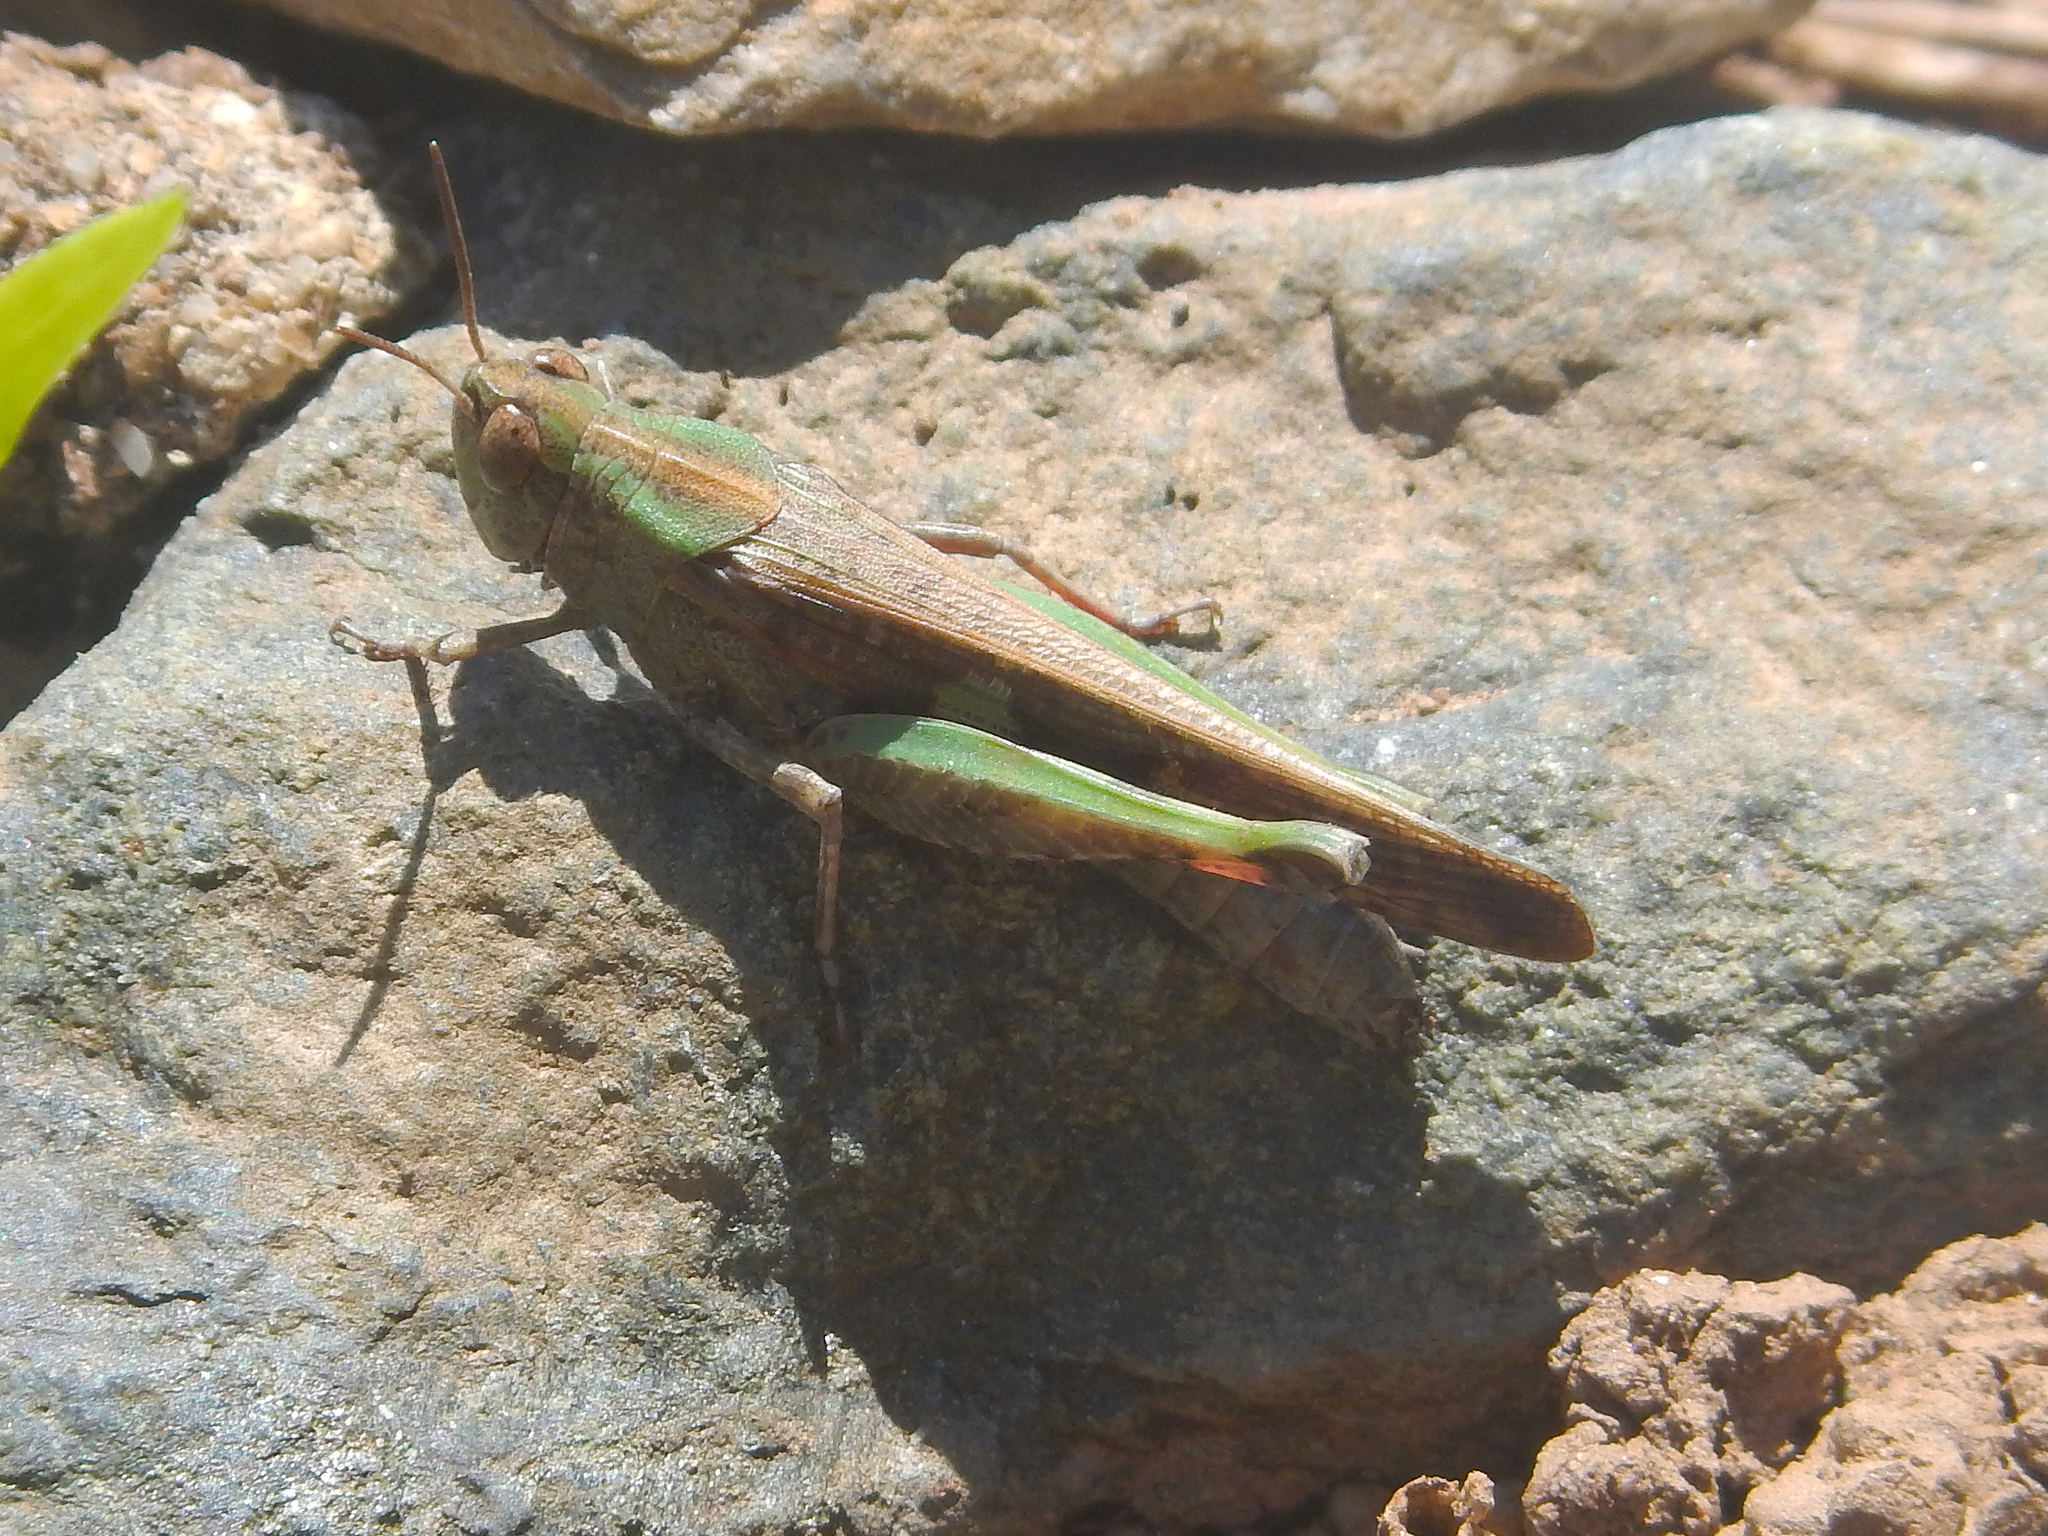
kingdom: Animalia
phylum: Arthropoda
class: Insecta
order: Orthoptera
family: Acrididae
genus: Aiolopus
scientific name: Aiolopus strepens
